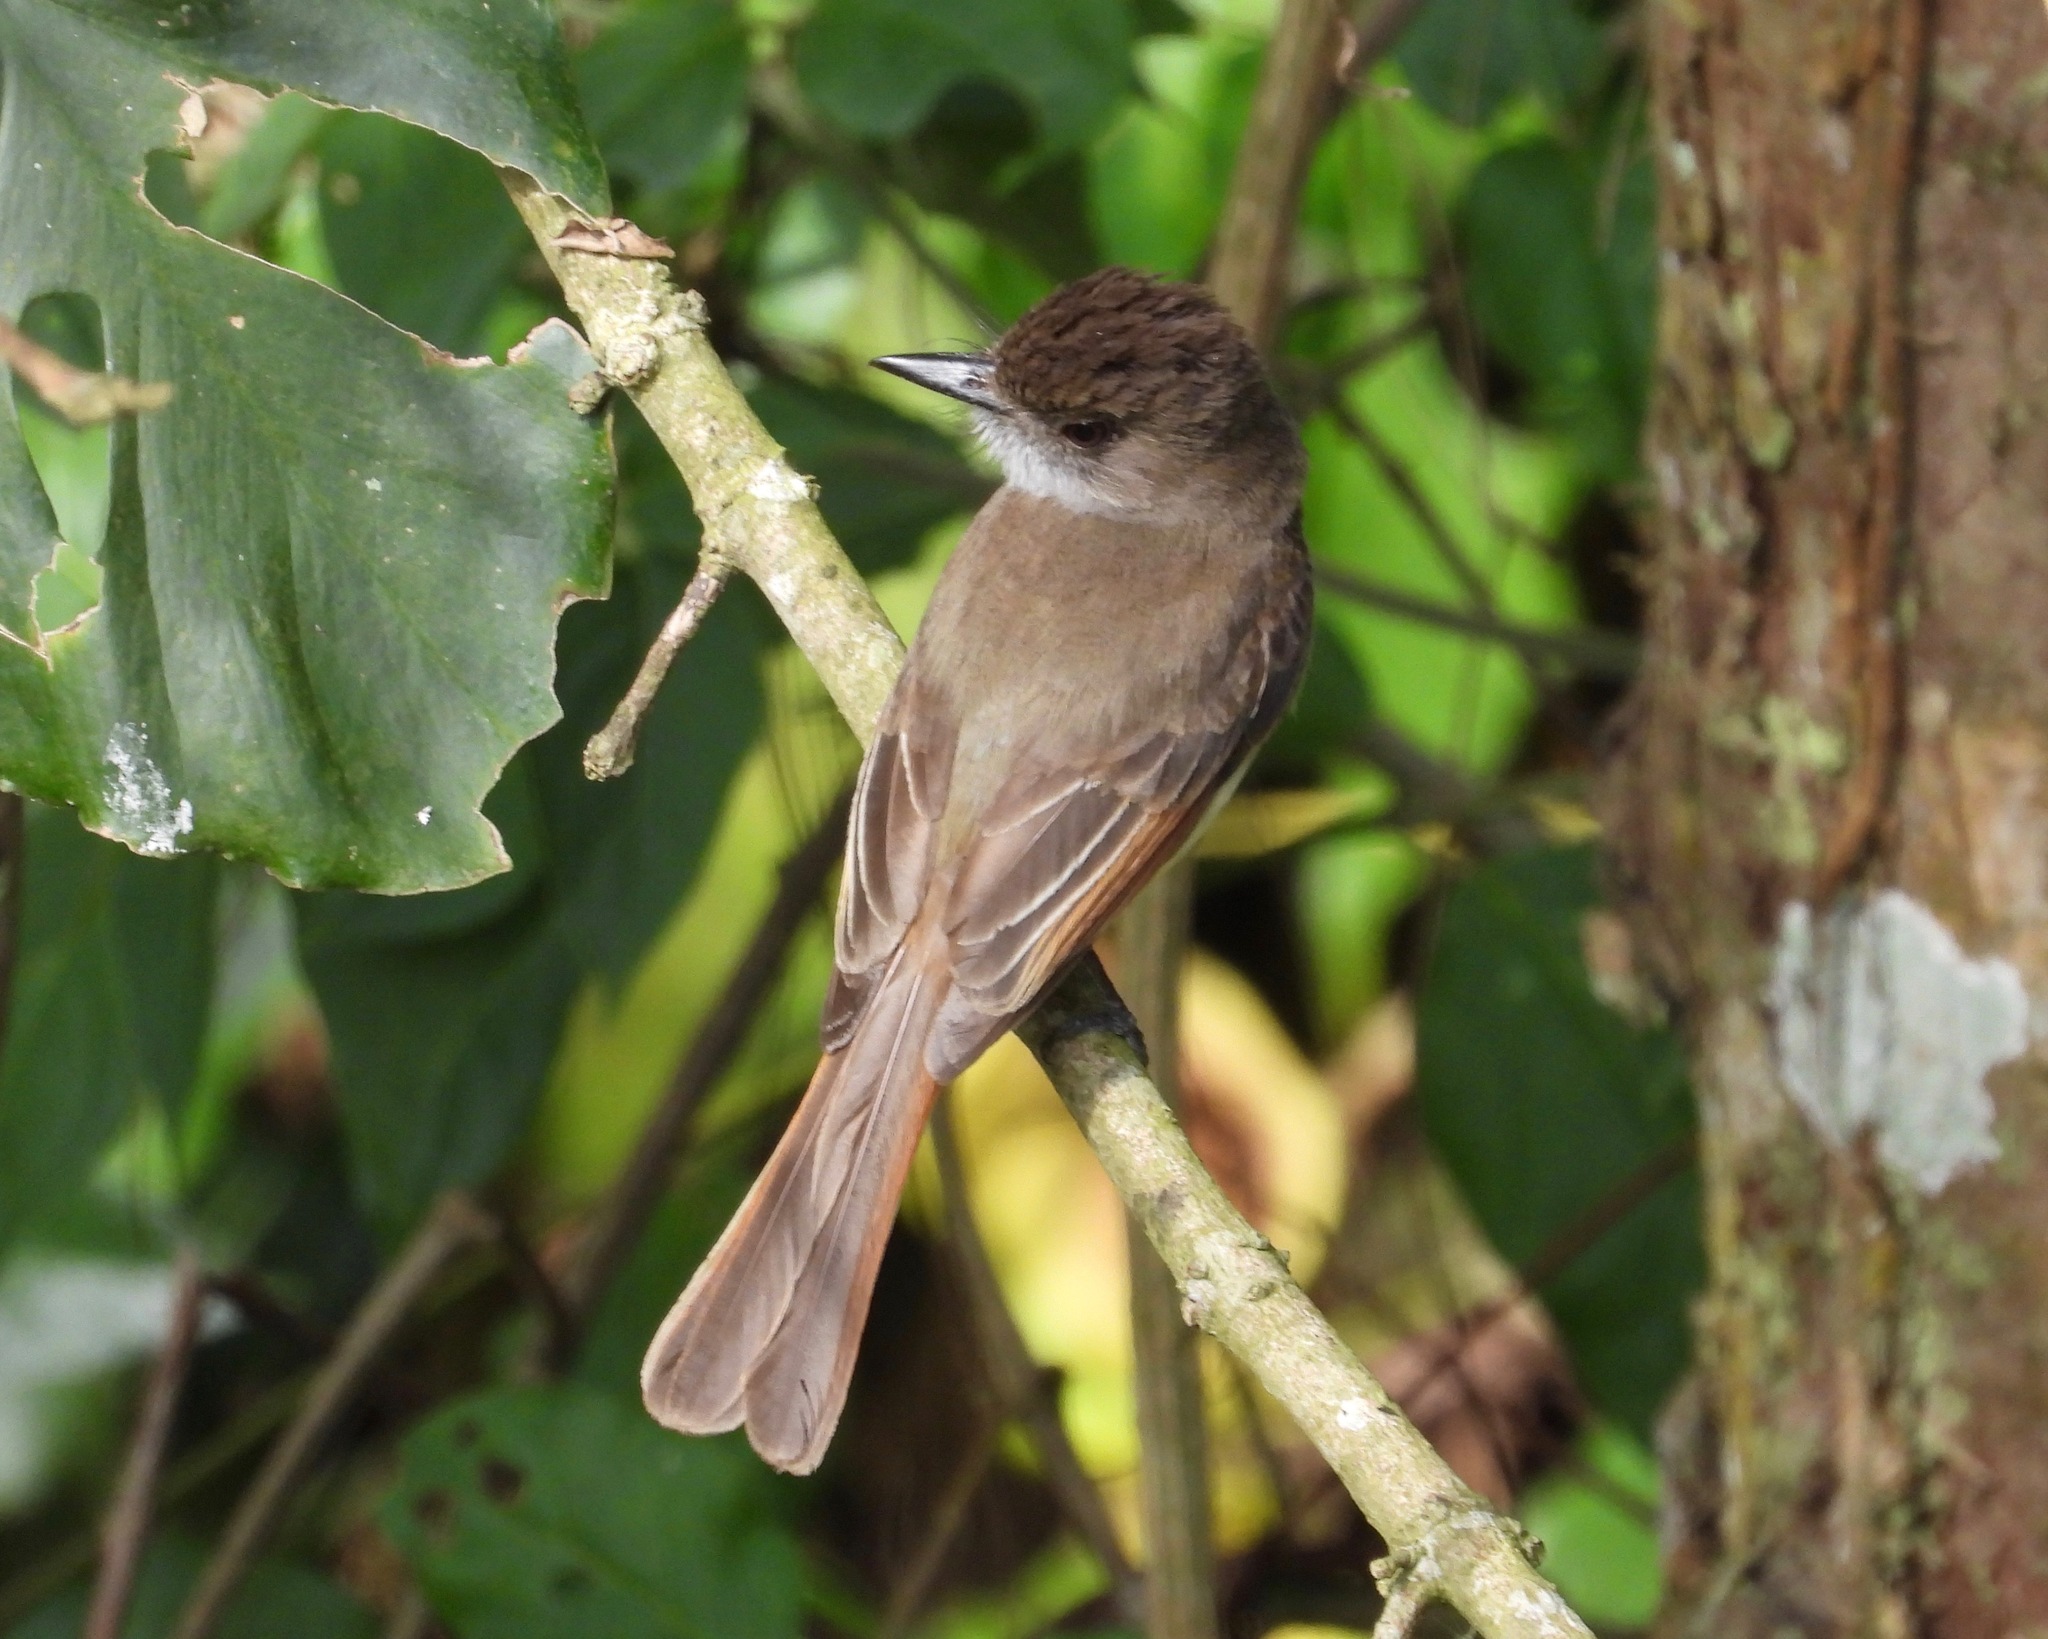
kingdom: Animalia
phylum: Chordata
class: Aves
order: Passeriformes
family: Tyrannidae
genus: Myiarchus
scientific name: Myiarchus tuberculifer
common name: Dusky-capped flycatcher
